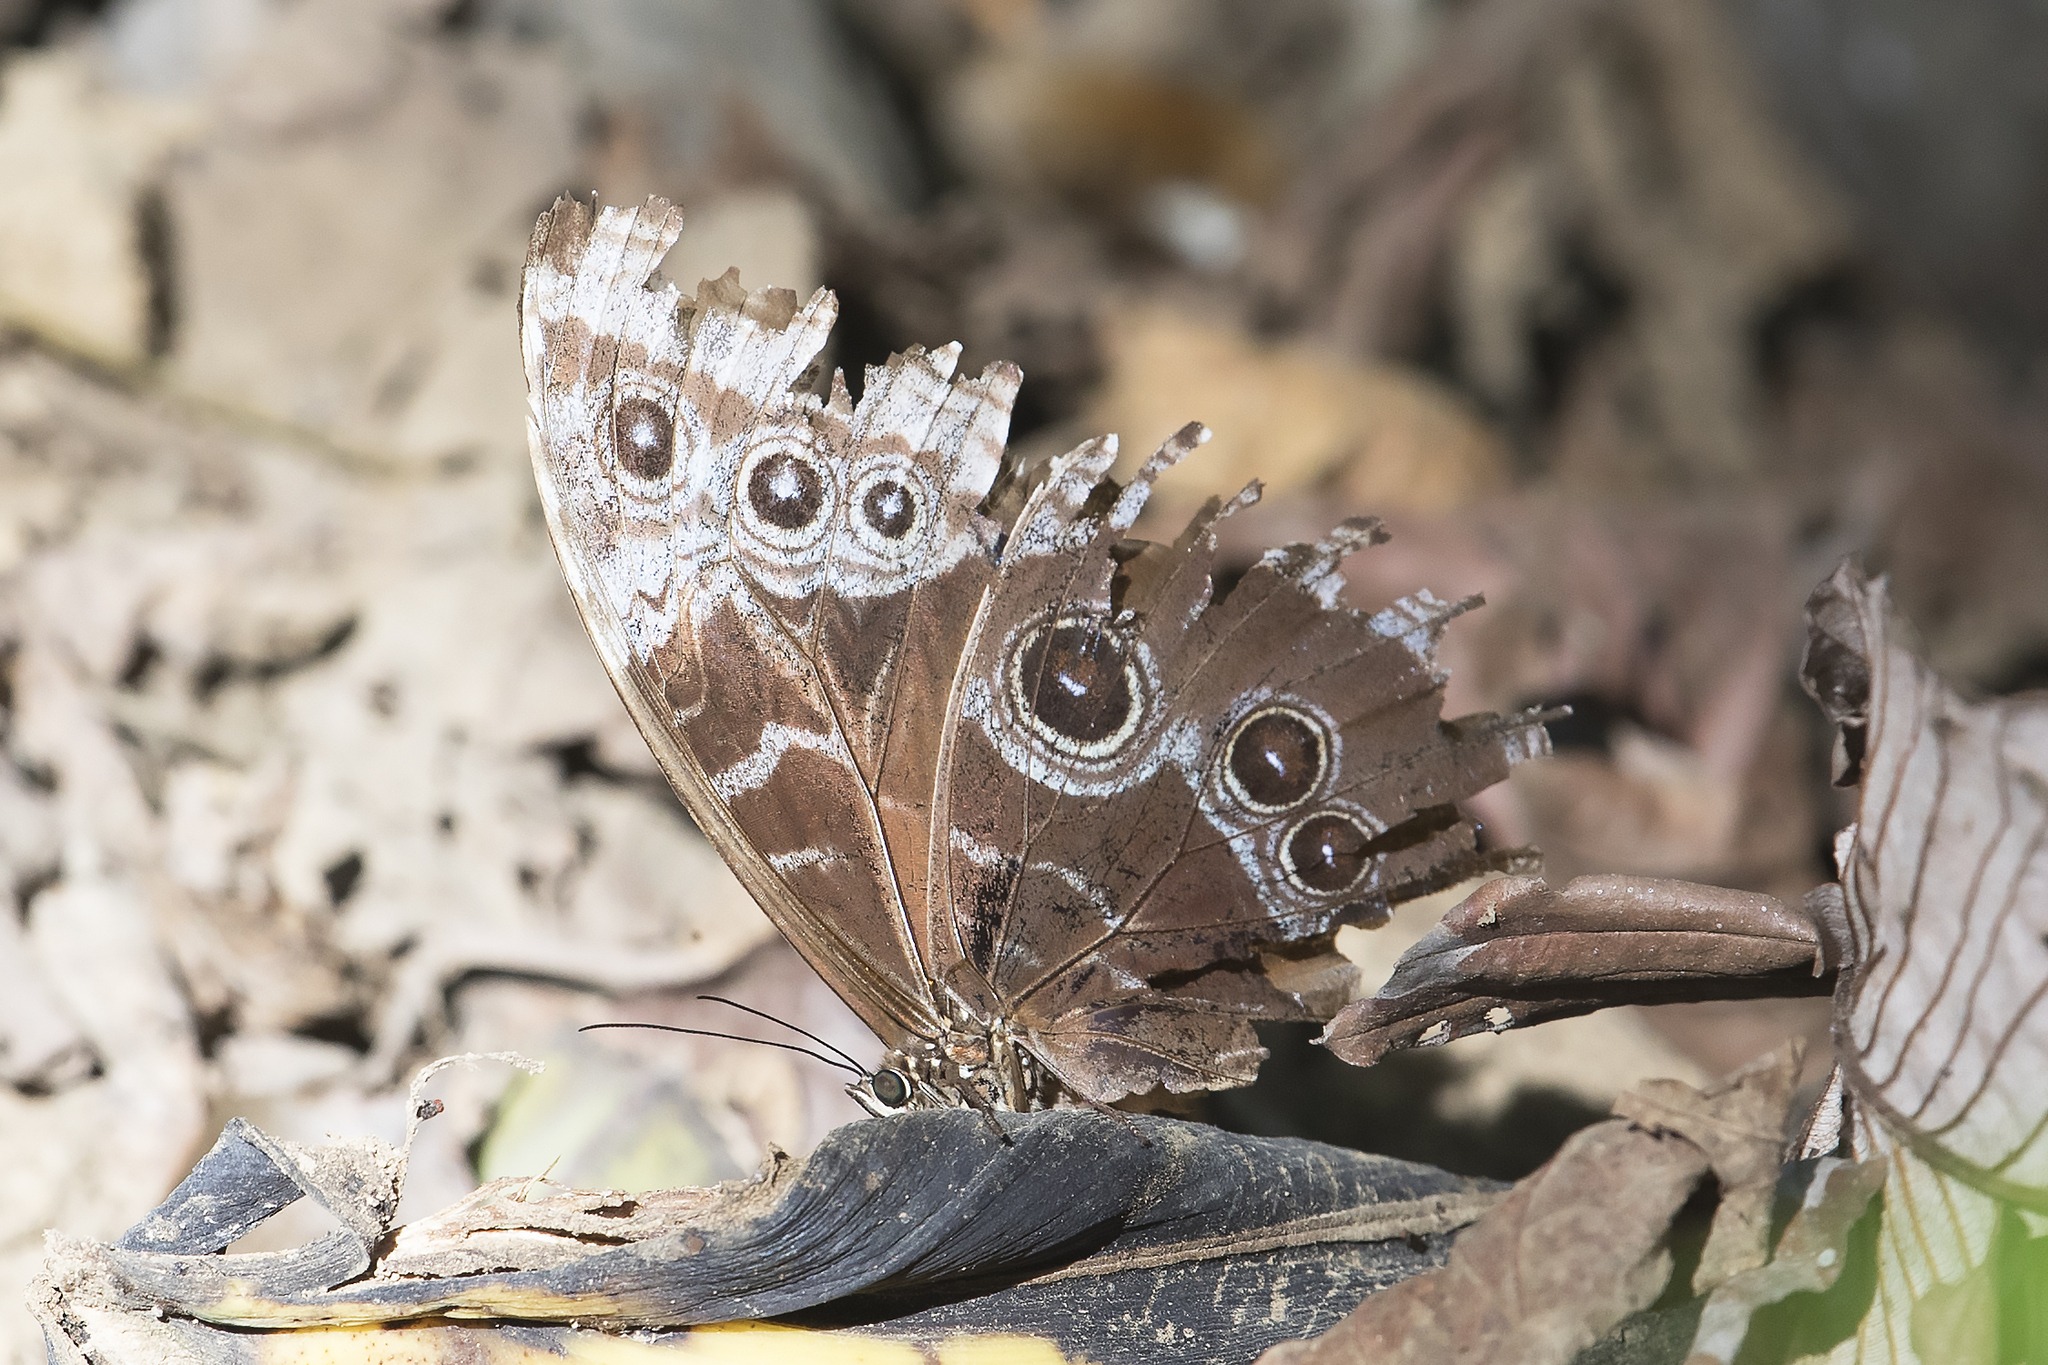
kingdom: Animalia
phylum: Arthropoda
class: Insecta
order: Lepidoptera
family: Nymphalidae
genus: Morpho
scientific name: Morpho helenor
